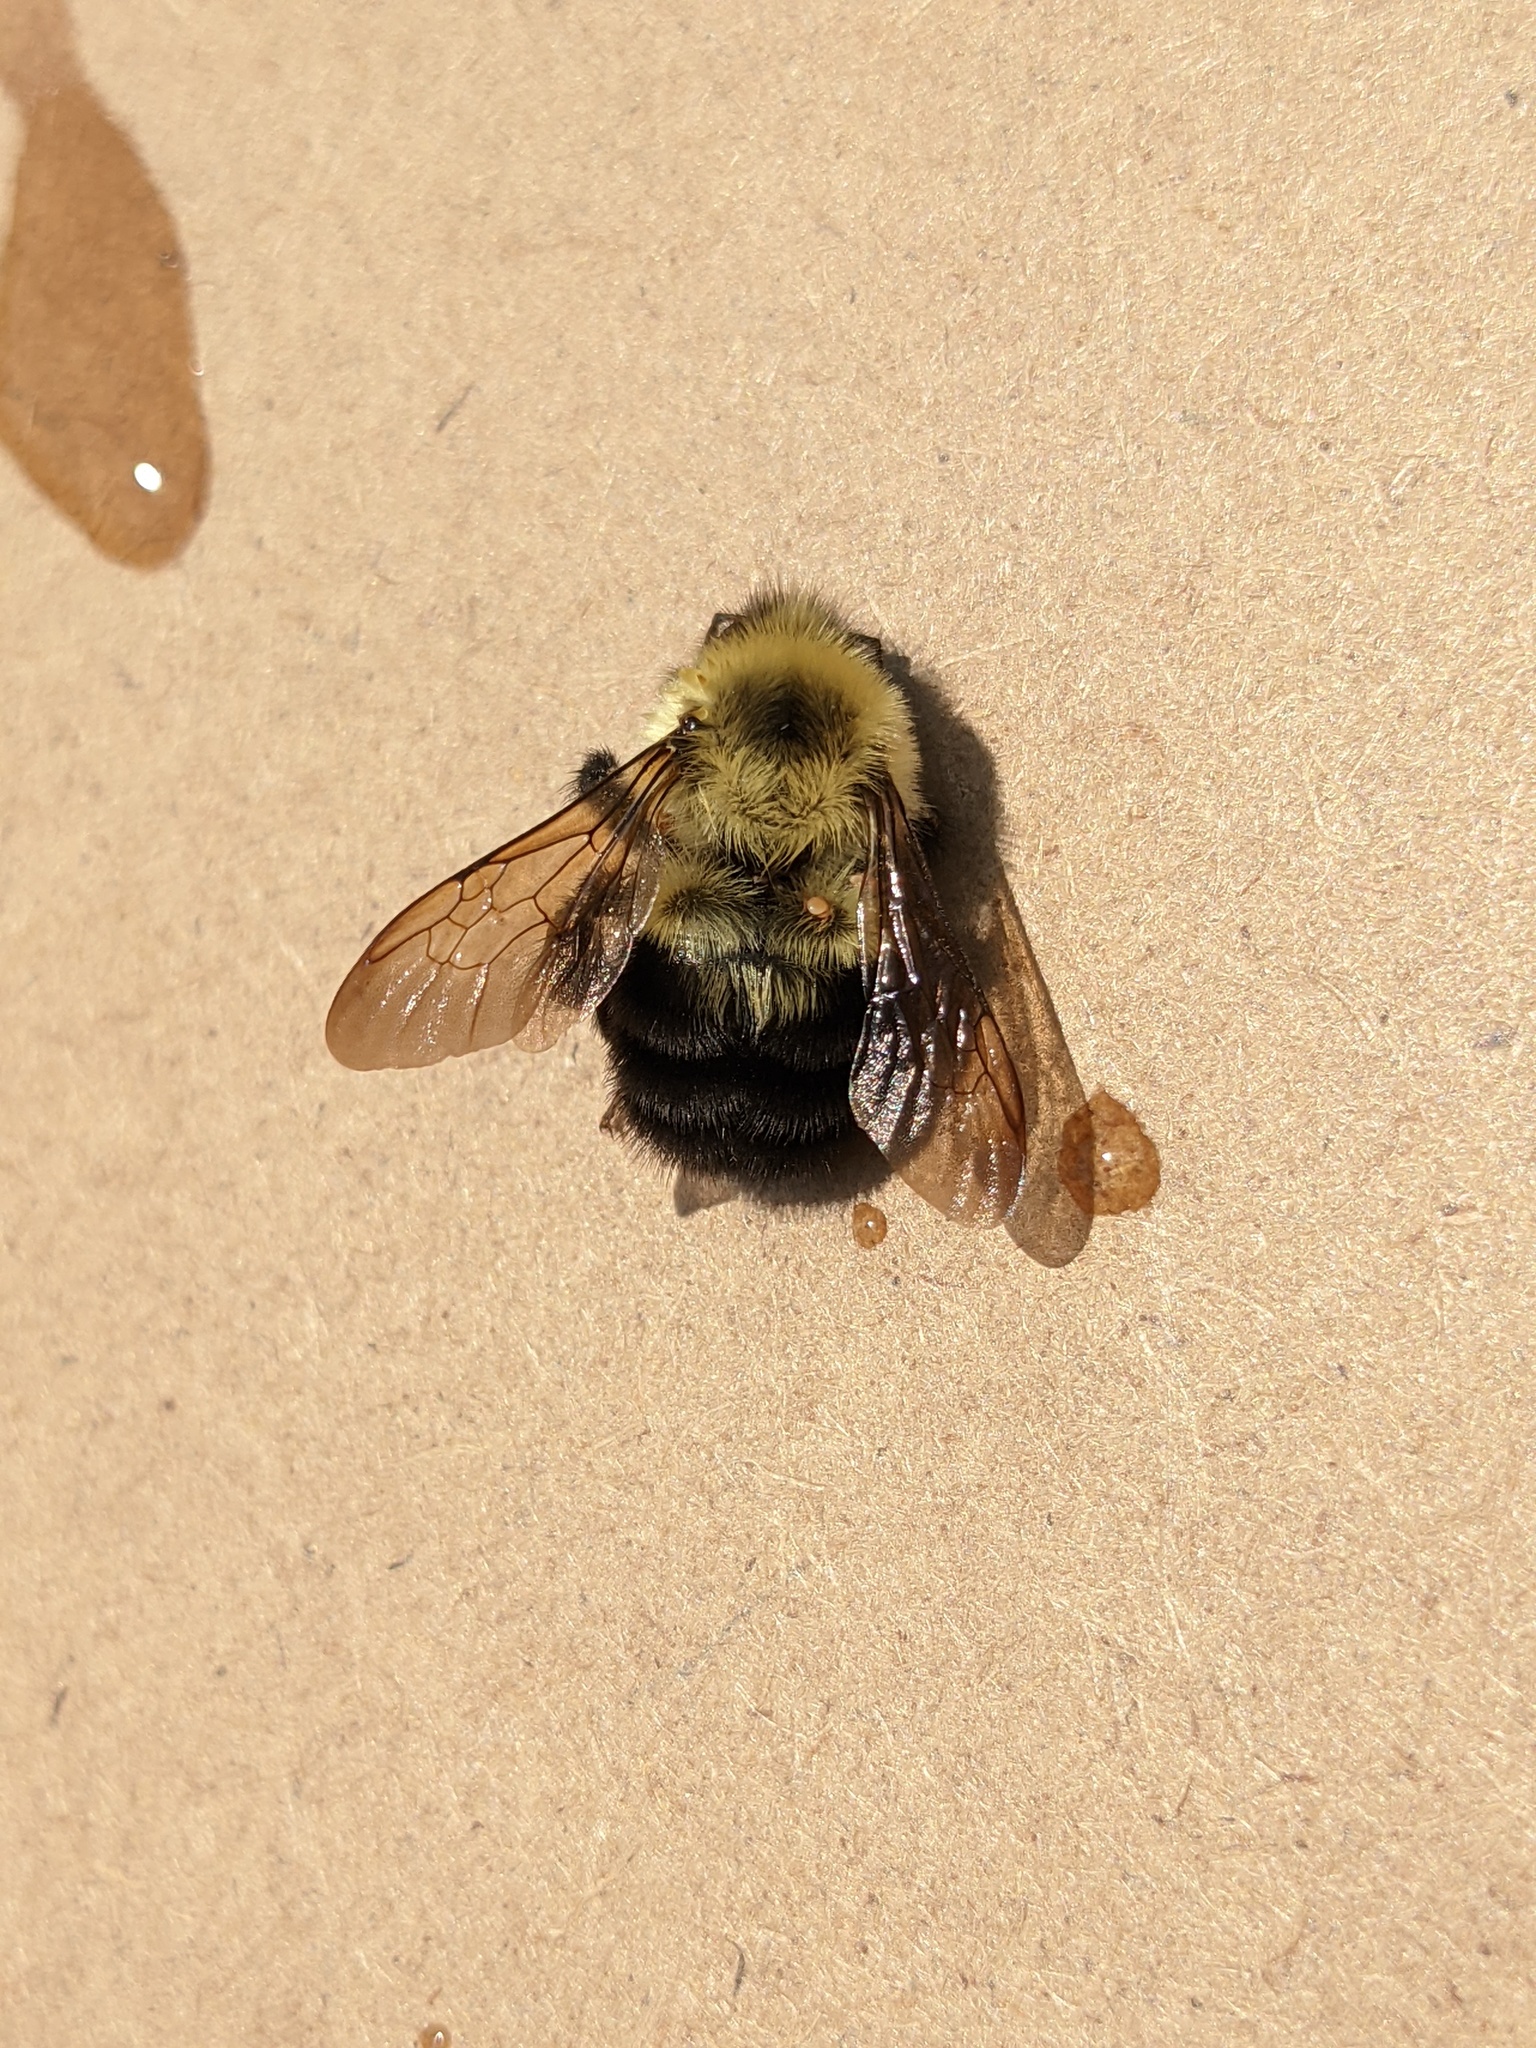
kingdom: Animalia
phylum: Arthropoda
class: Insecta
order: Hymenoptera
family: Apidae
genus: Bombus
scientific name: Bombus bimaculatus
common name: Two-spotted bumble bee
